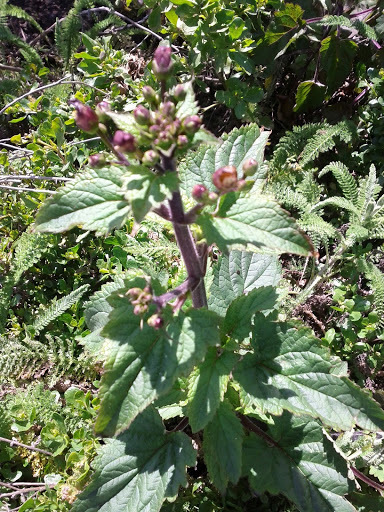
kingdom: Plantae
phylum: Tracheophyta
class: Magnoliopsida
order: Lamiales
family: Scrophulariaceae
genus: Scrophularia
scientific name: Scrophularia californica
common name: California figwort
